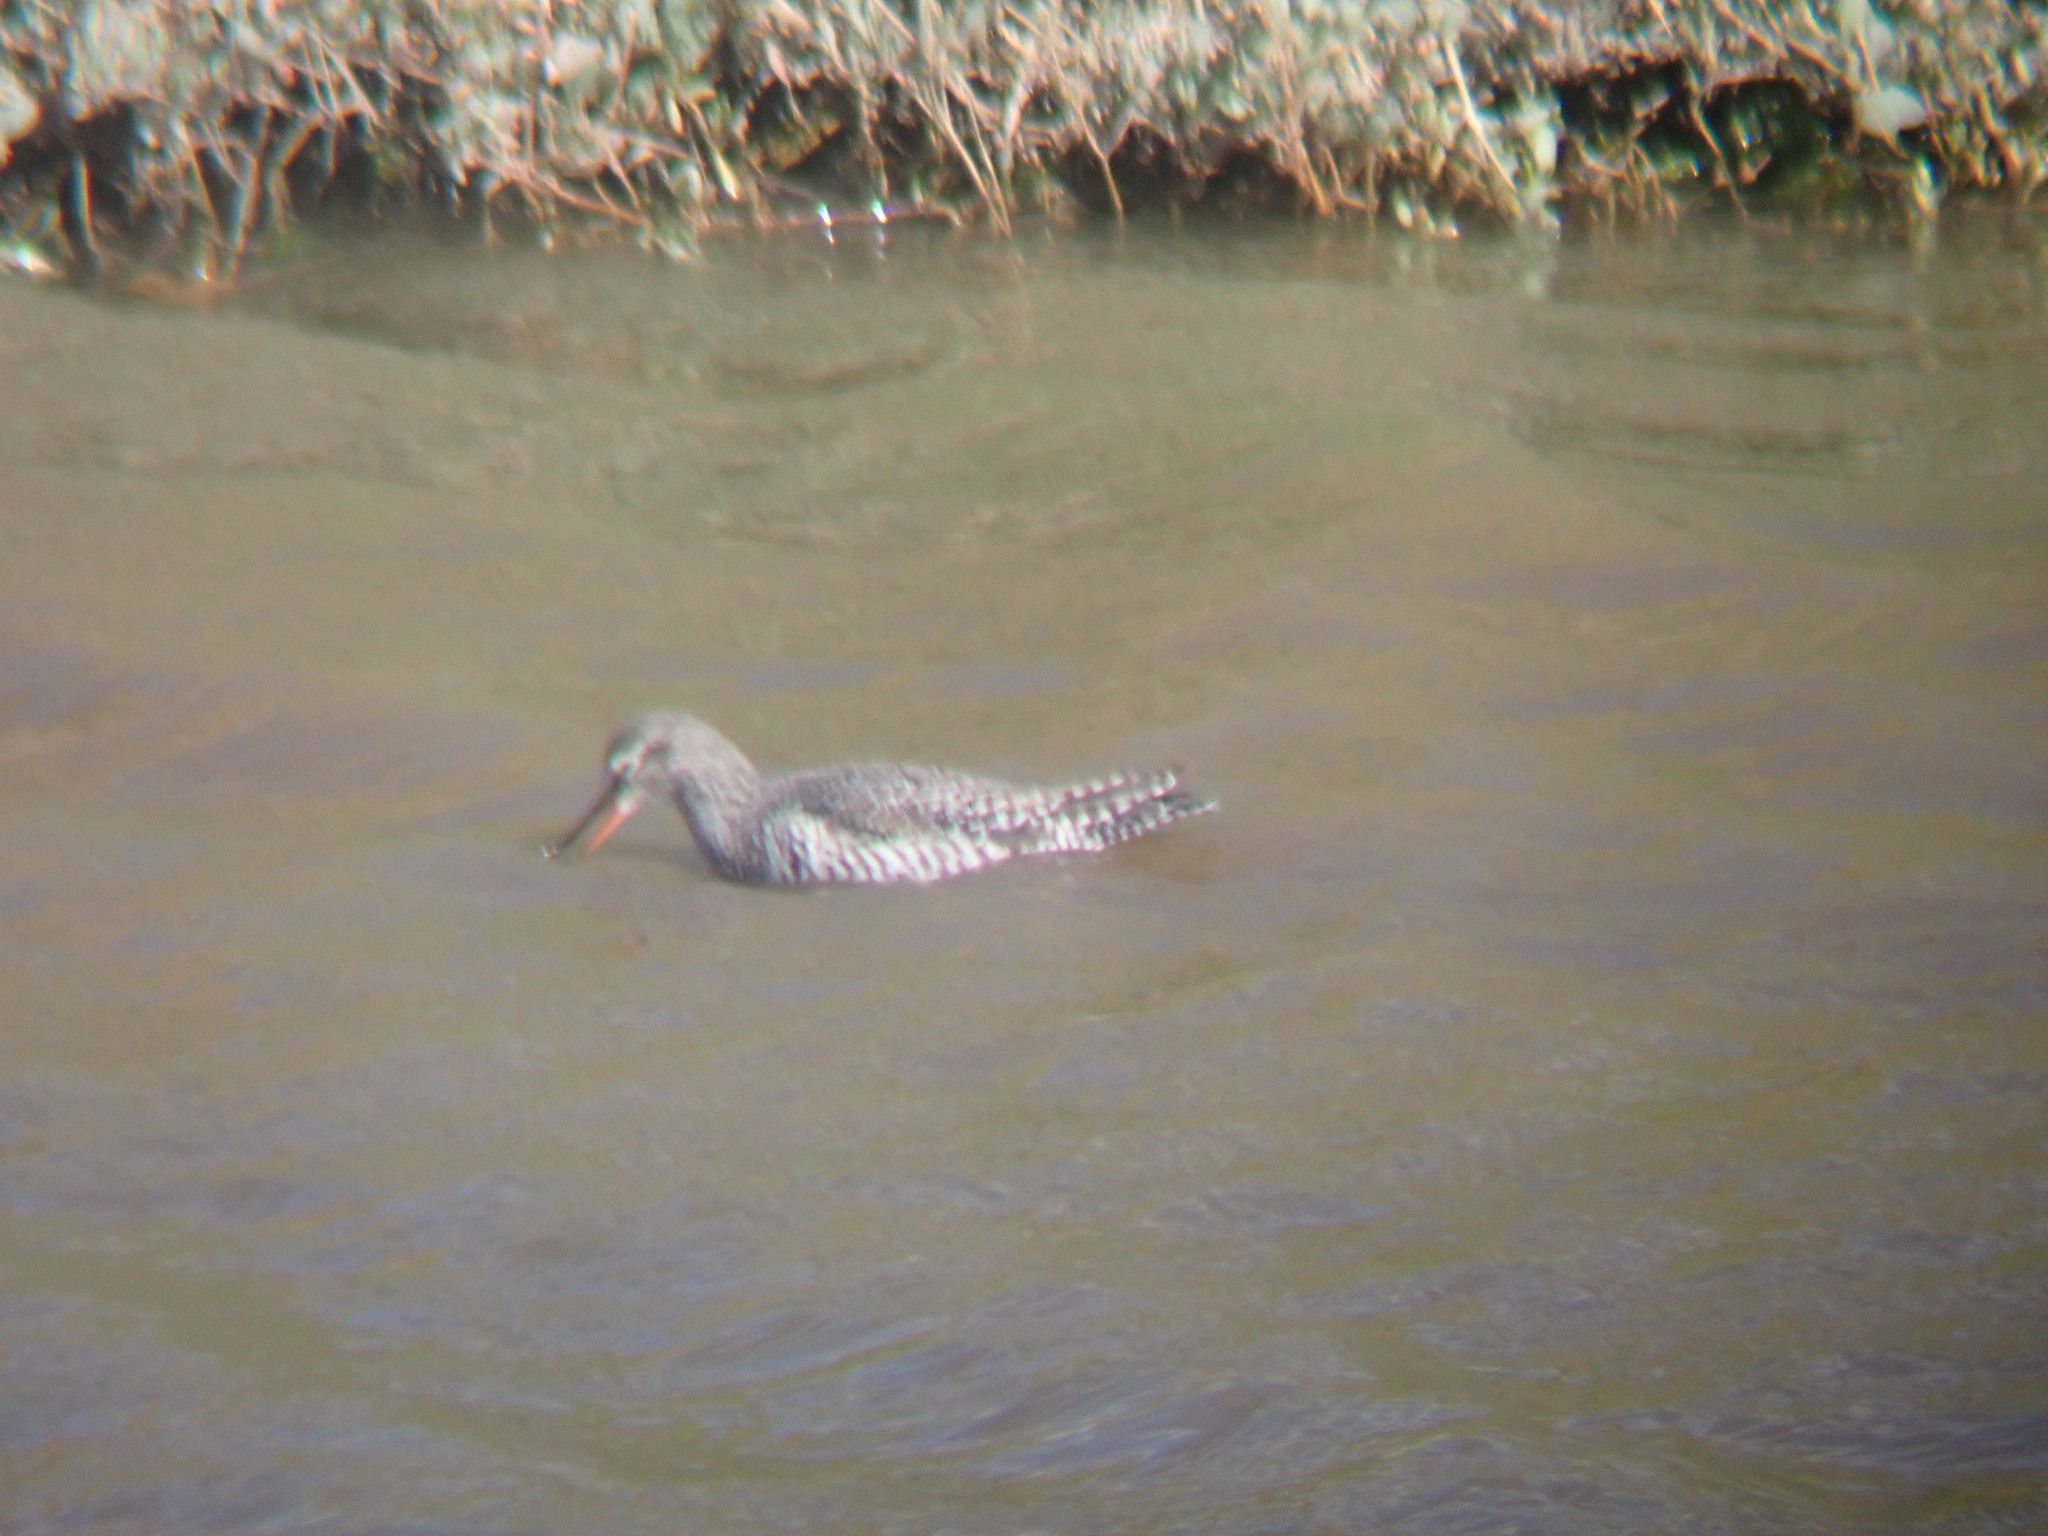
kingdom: Animalia
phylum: Chordata
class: Aves
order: Charadriiformes
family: Scolopacidae
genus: Tringa
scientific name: Tringa erythropus
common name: Spotted redshank
